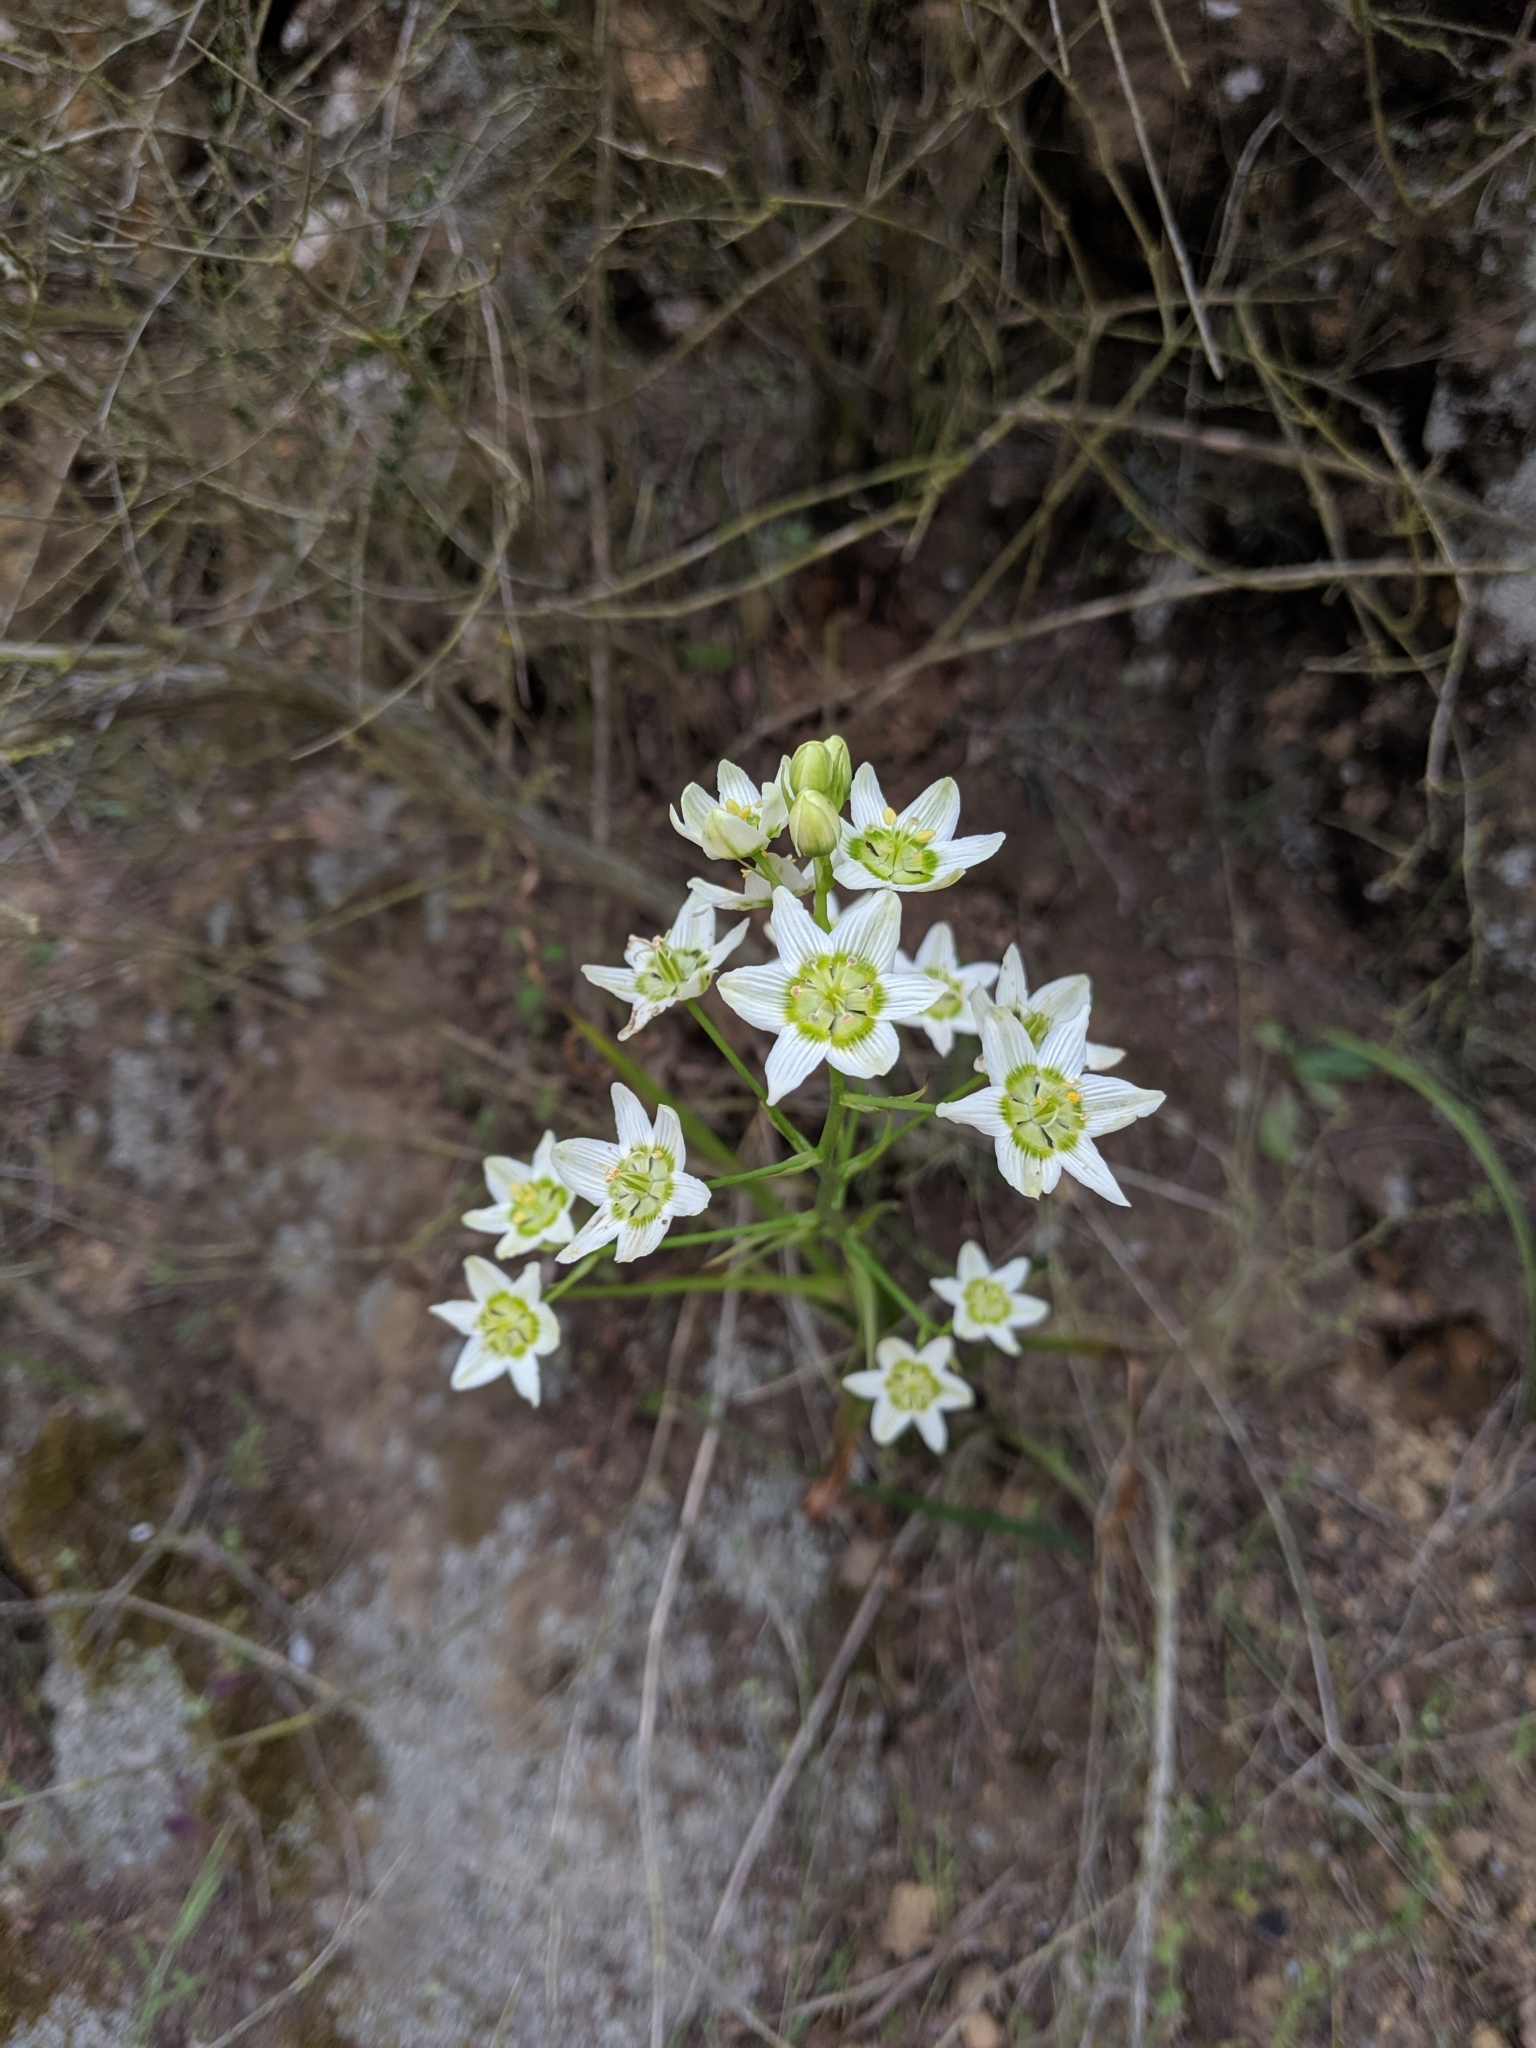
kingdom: Plantae
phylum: Tracheophyta
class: Liliopsida
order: Liliales
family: Melanthiaceae
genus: Toxicoscordion
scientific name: Toxicoscordion fremontii
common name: Fremont's death camas
